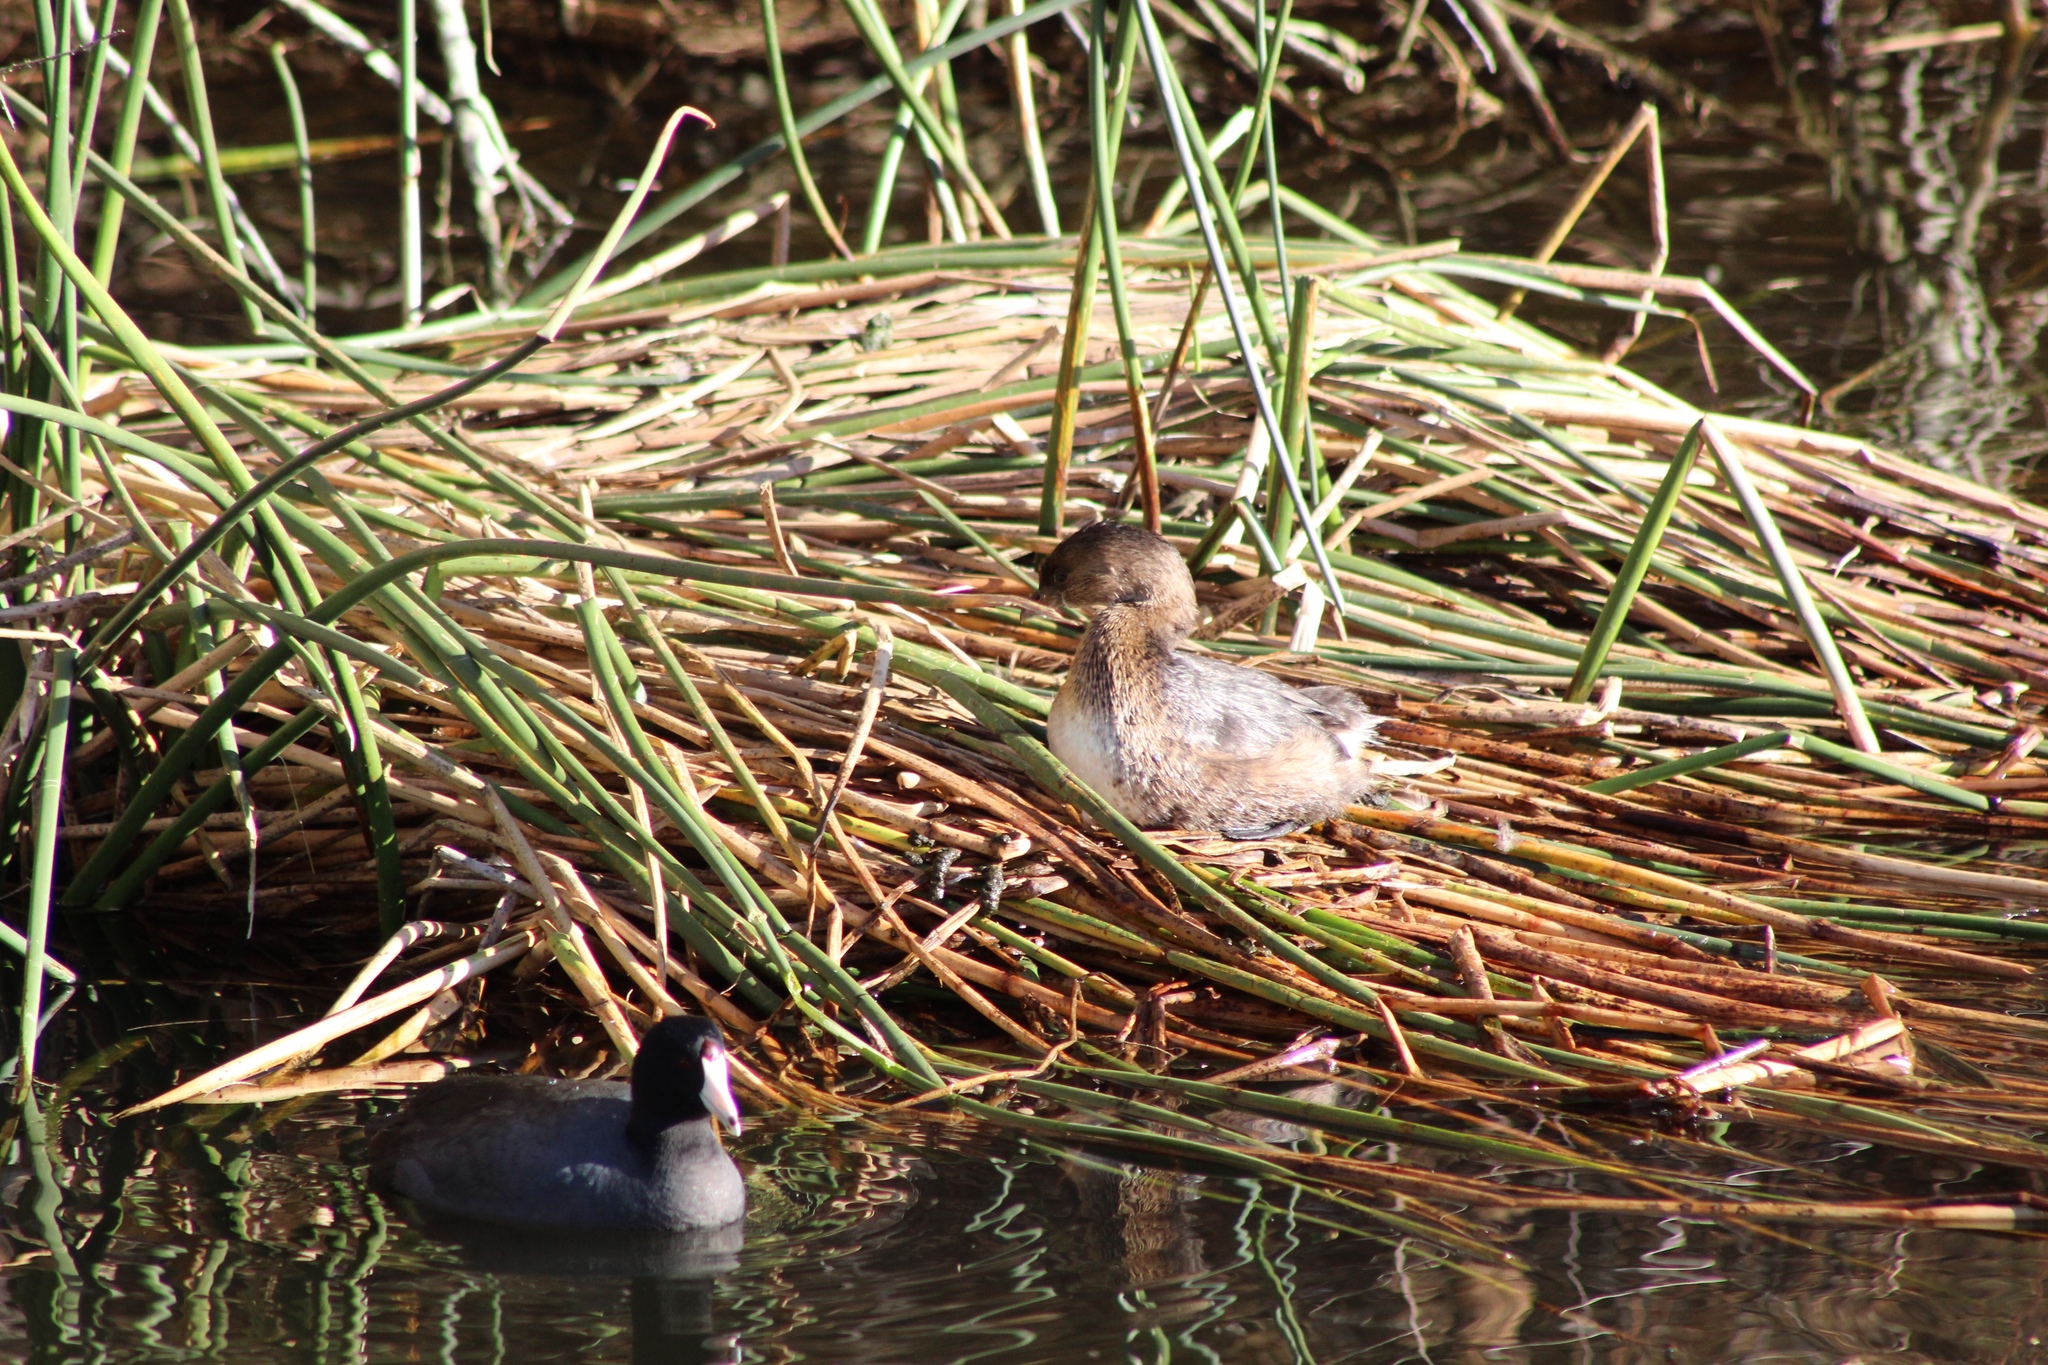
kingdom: Animalia
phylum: Chordata
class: Aves
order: Podicipediformes
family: Podicipedidae
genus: Podilymbus
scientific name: Podilymbus podiceps
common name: Pied-billed grebe
